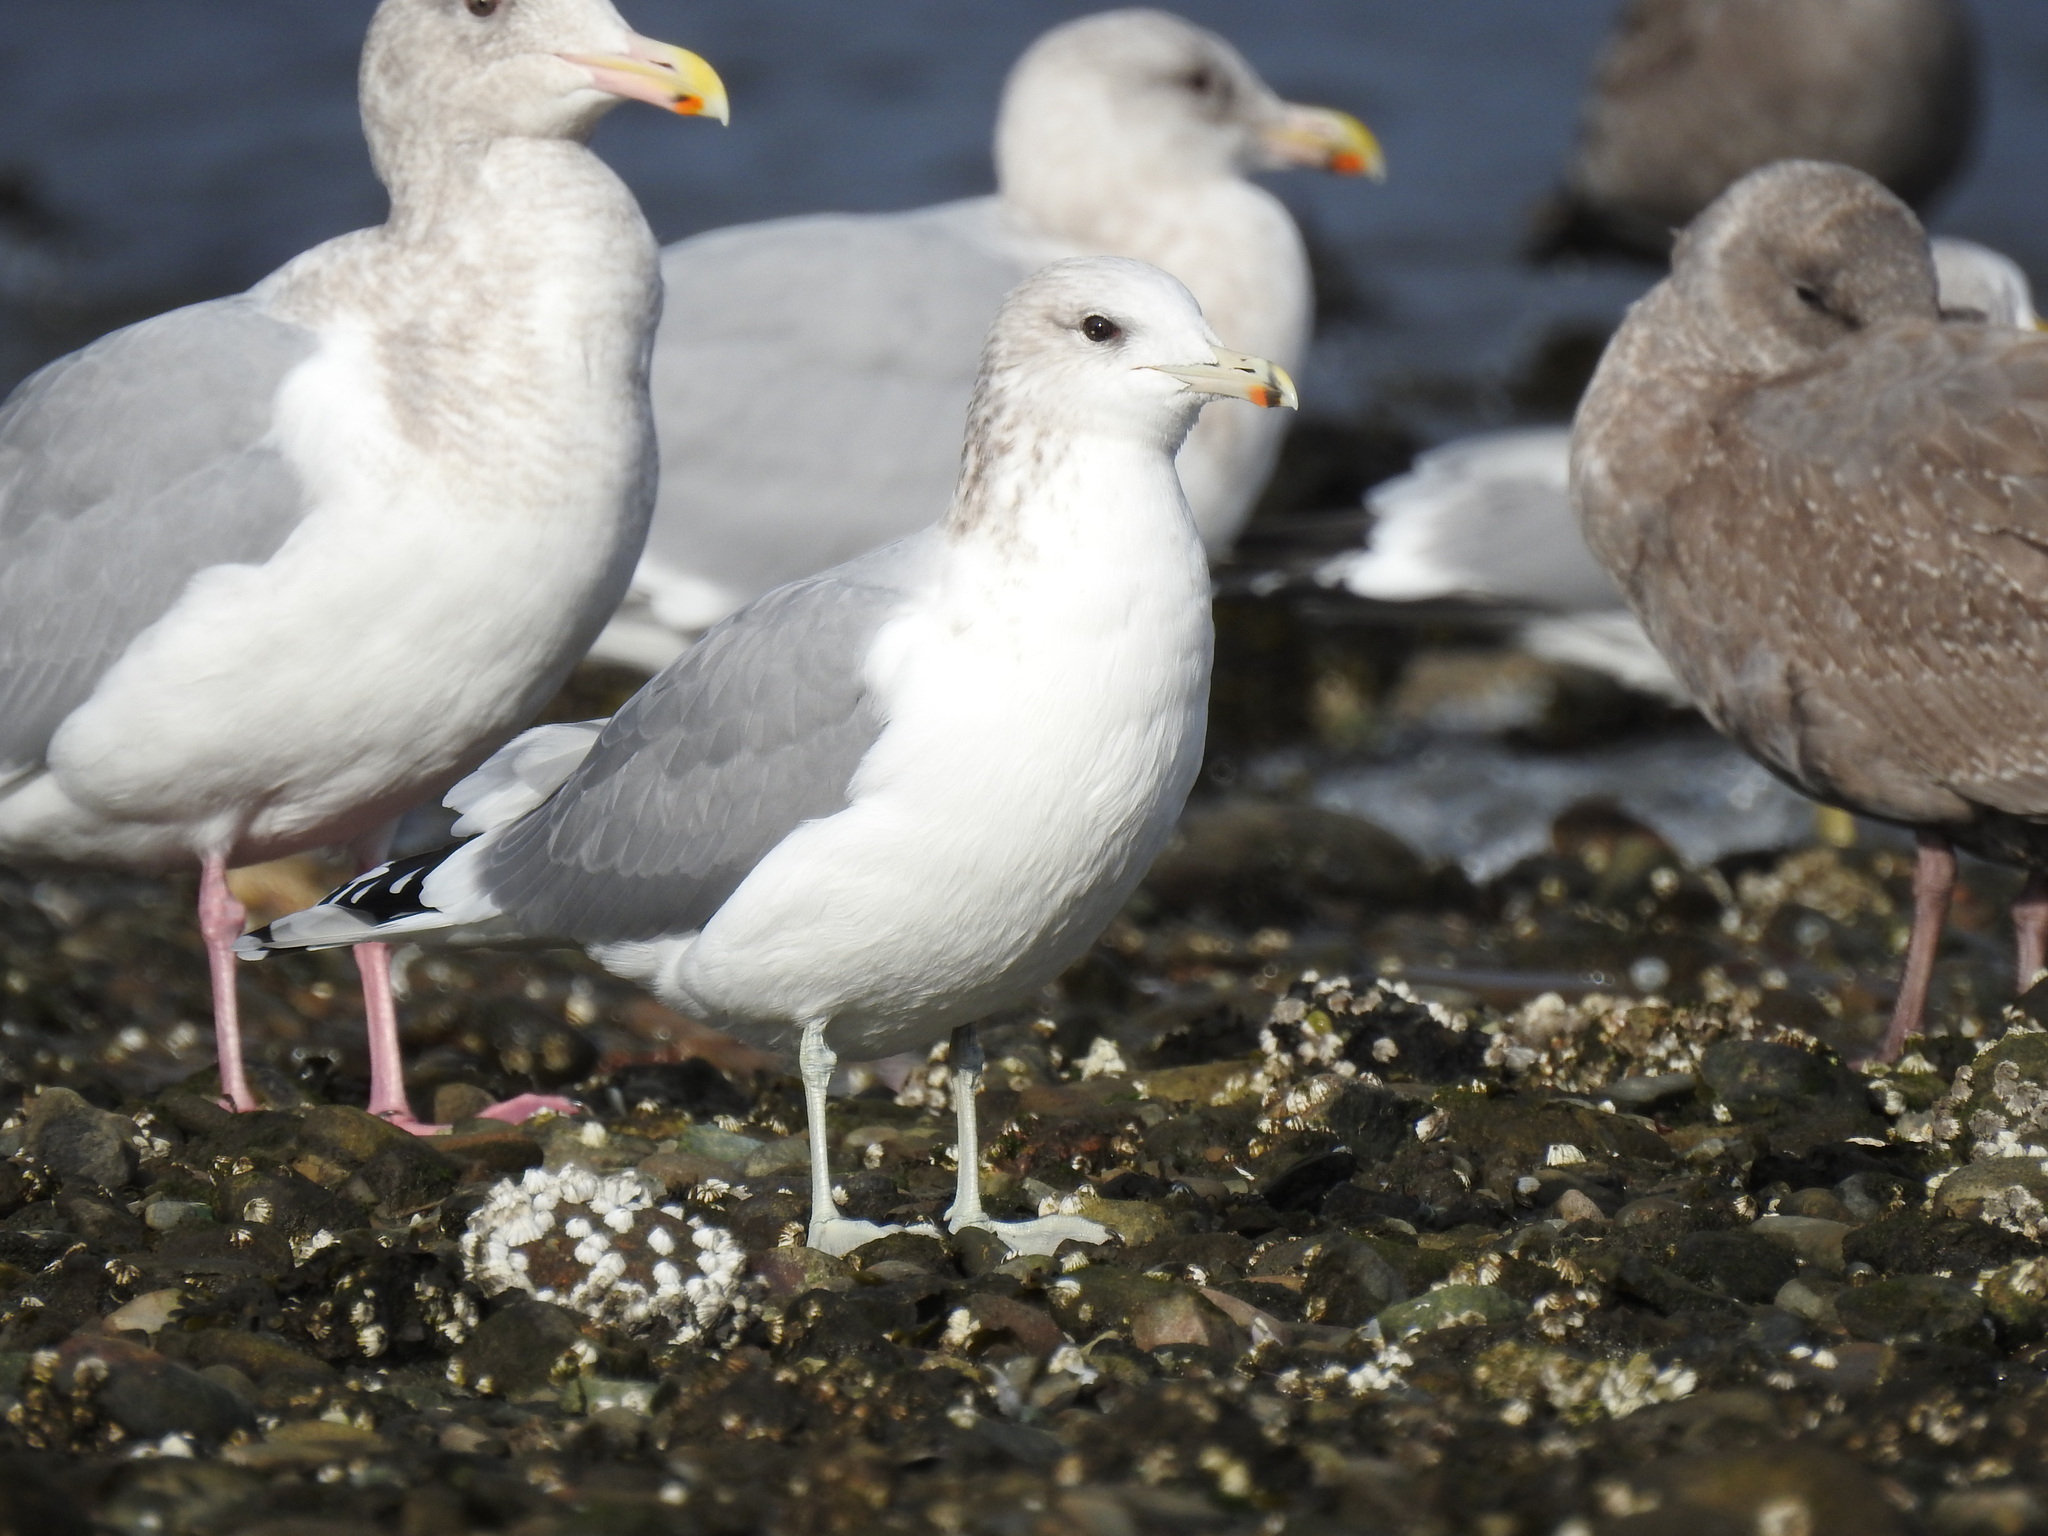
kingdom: Animalia
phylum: Chordata
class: Aves
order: Charadriiformes
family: Laridae
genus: Larus
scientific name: Larus californicus
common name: California gull
